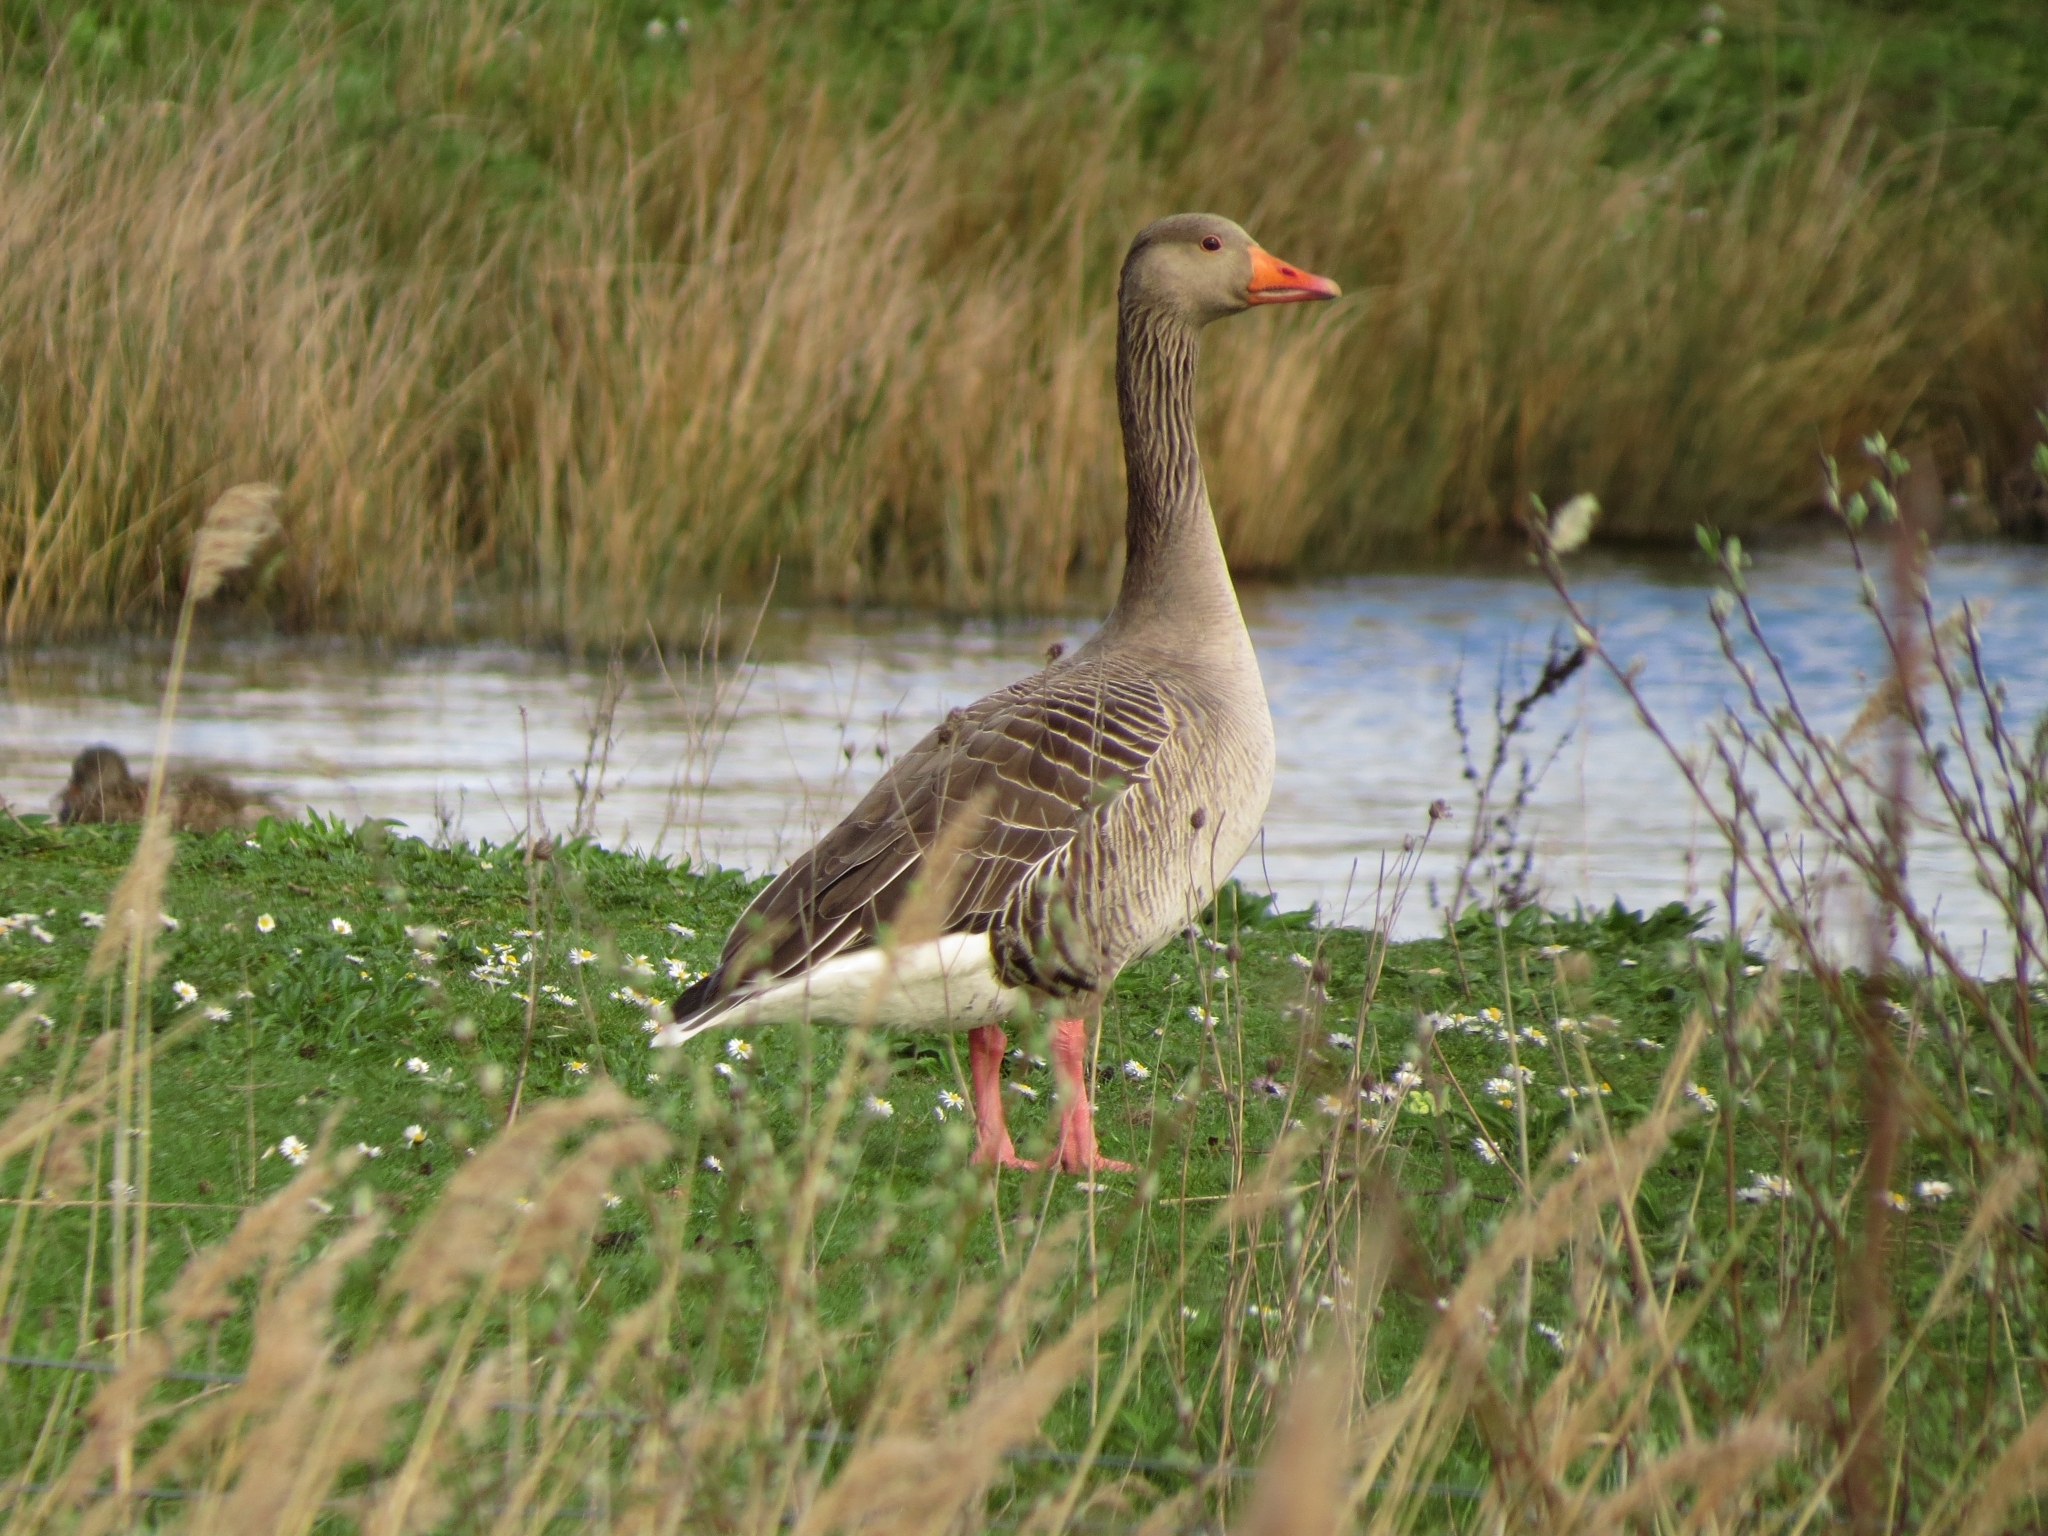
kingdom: Animalia
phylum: Chordata
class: Aves
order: Anseriformes
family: Anatidae
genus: Anser
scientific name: Anser anser
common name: Greylag goose
